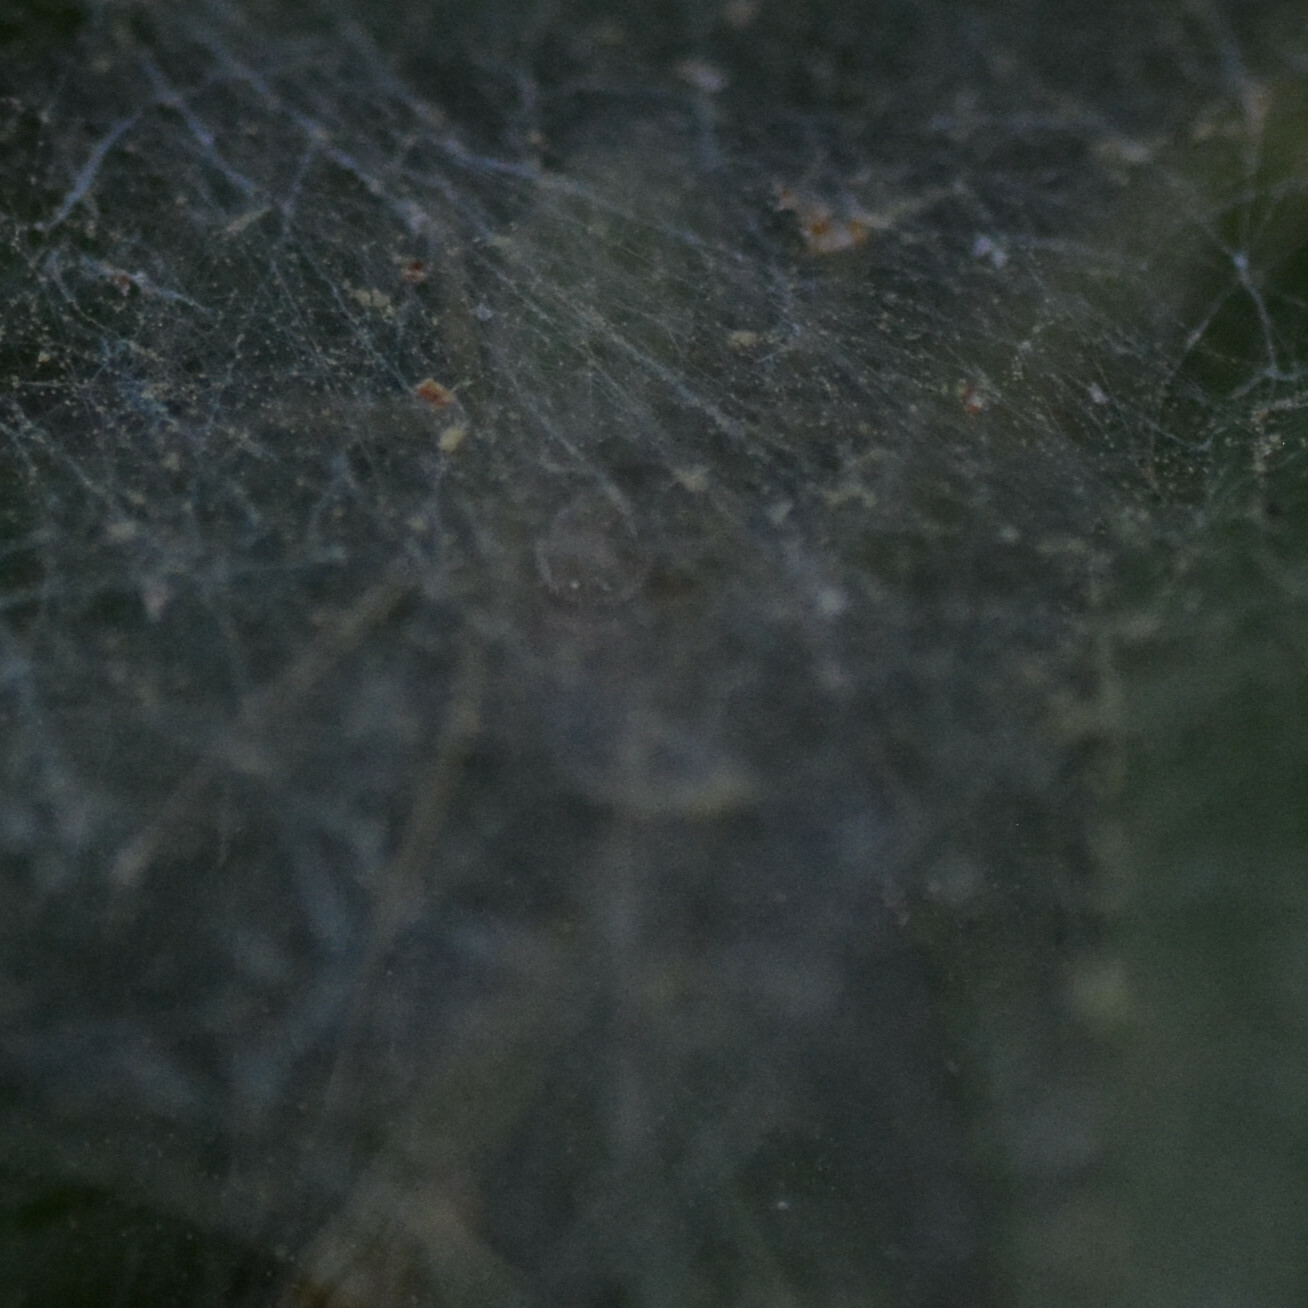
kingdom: Animalia
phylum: Arthropoda
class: Arachnida
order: Araneae
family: Dictynidae
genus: Nigma
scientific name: Nigma walckenaeri
